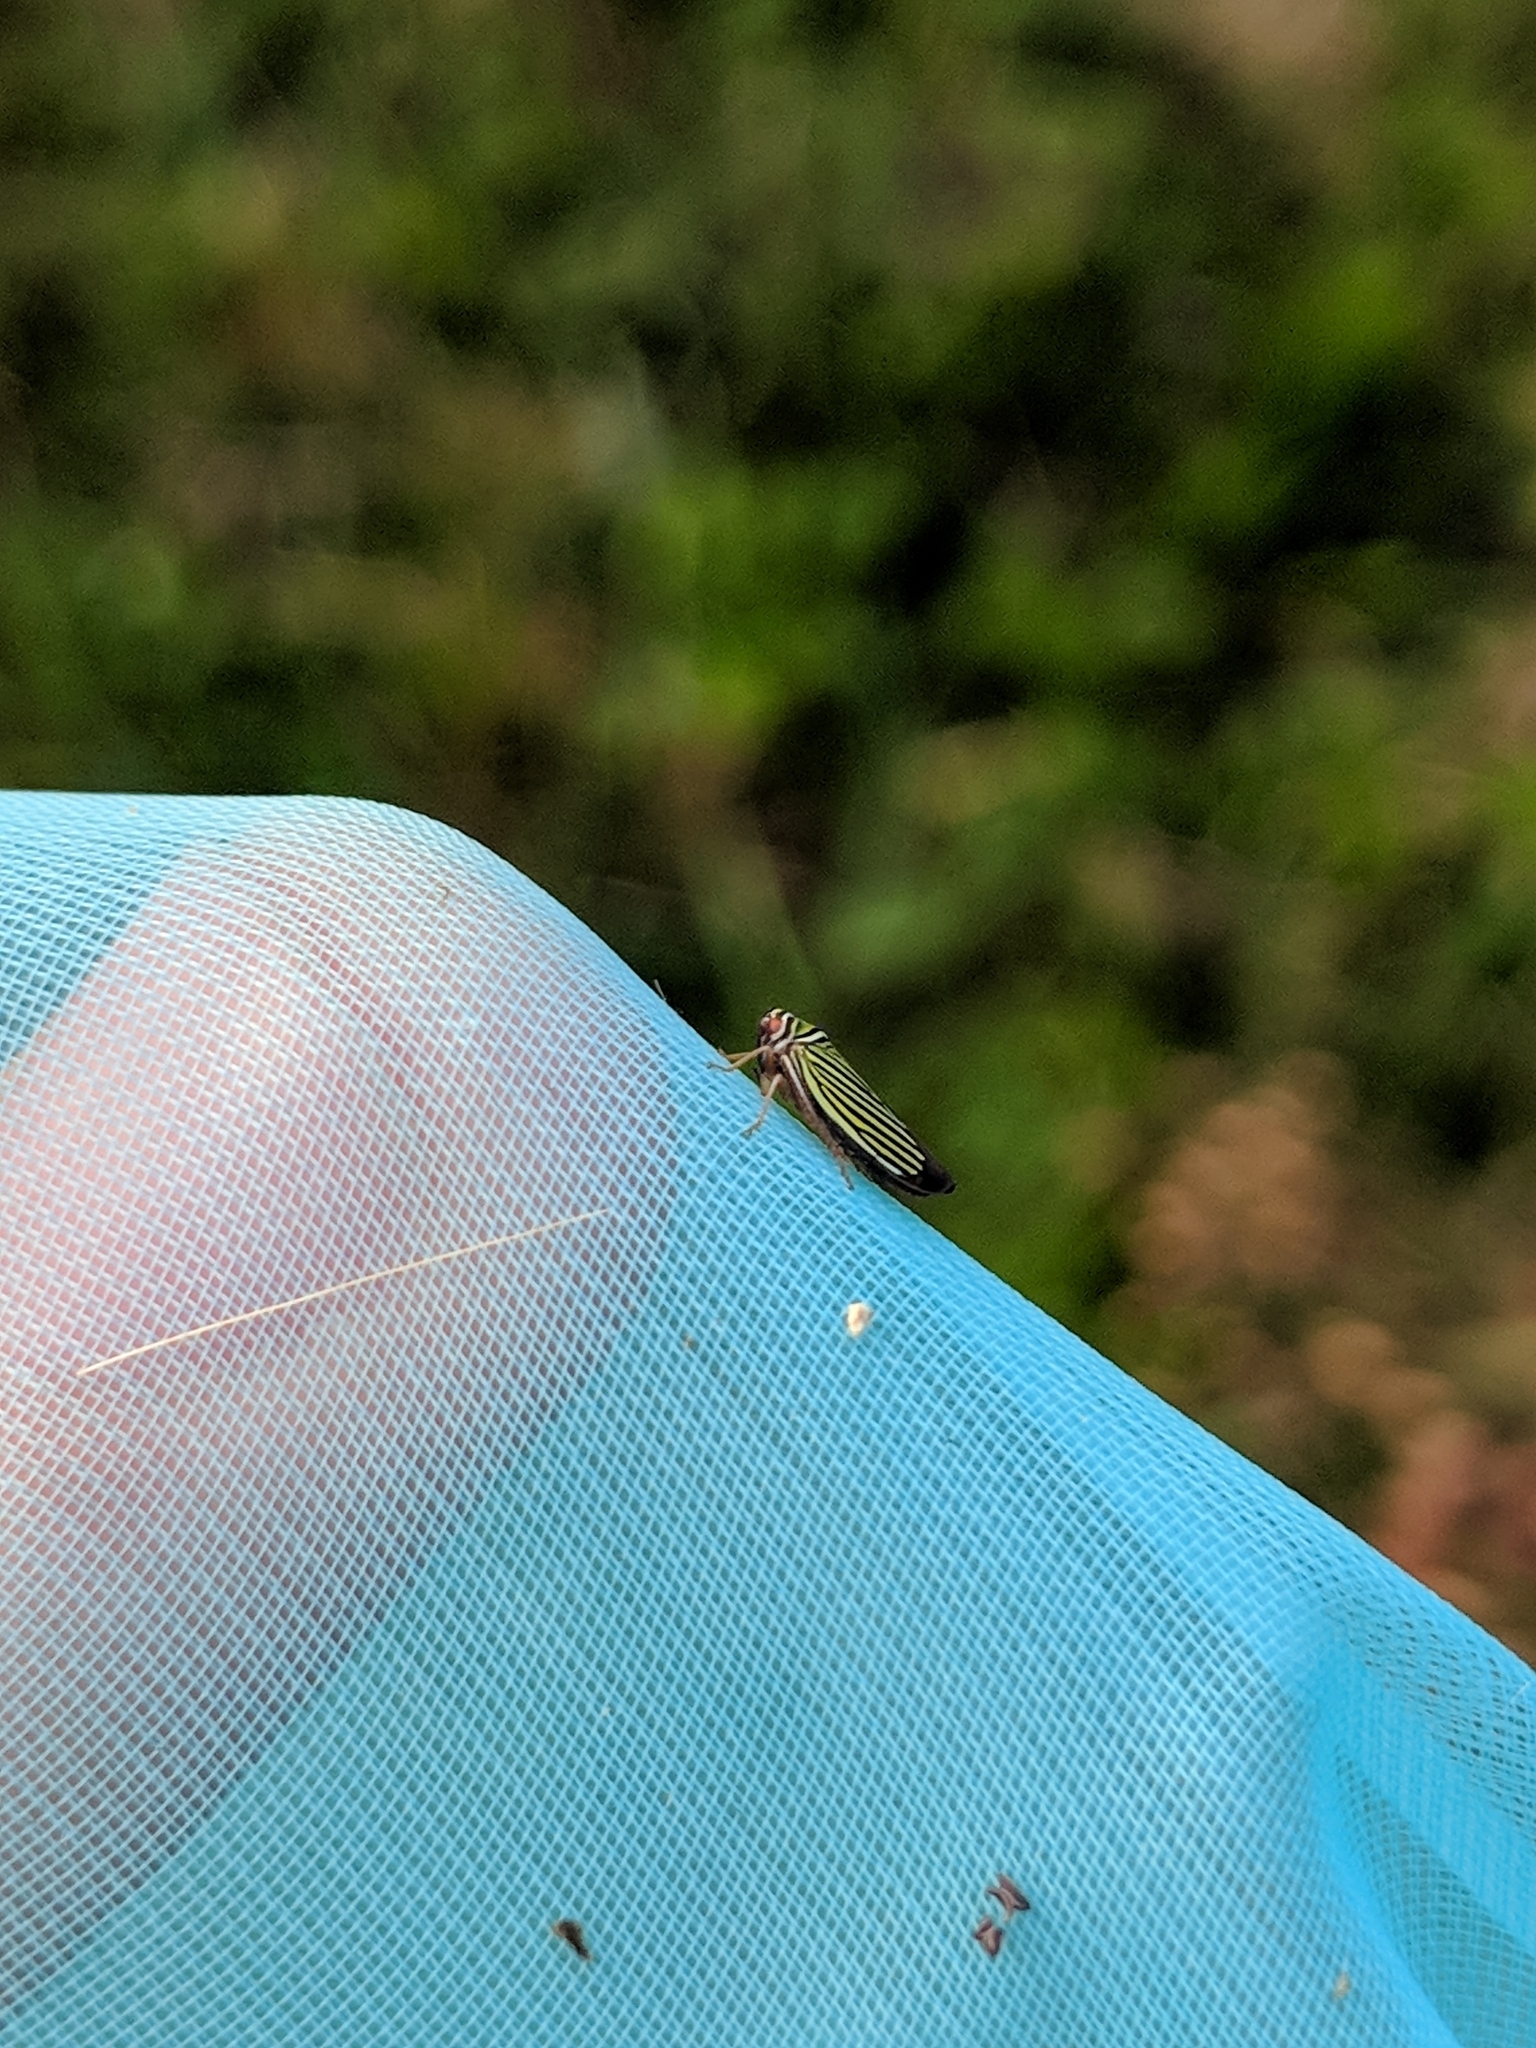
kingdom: Animalia
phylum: Arthropoda
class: Insecta
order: Hemiptera
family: Cicadellidae
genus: Tylozygus
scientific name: Tylozygus bifidus
